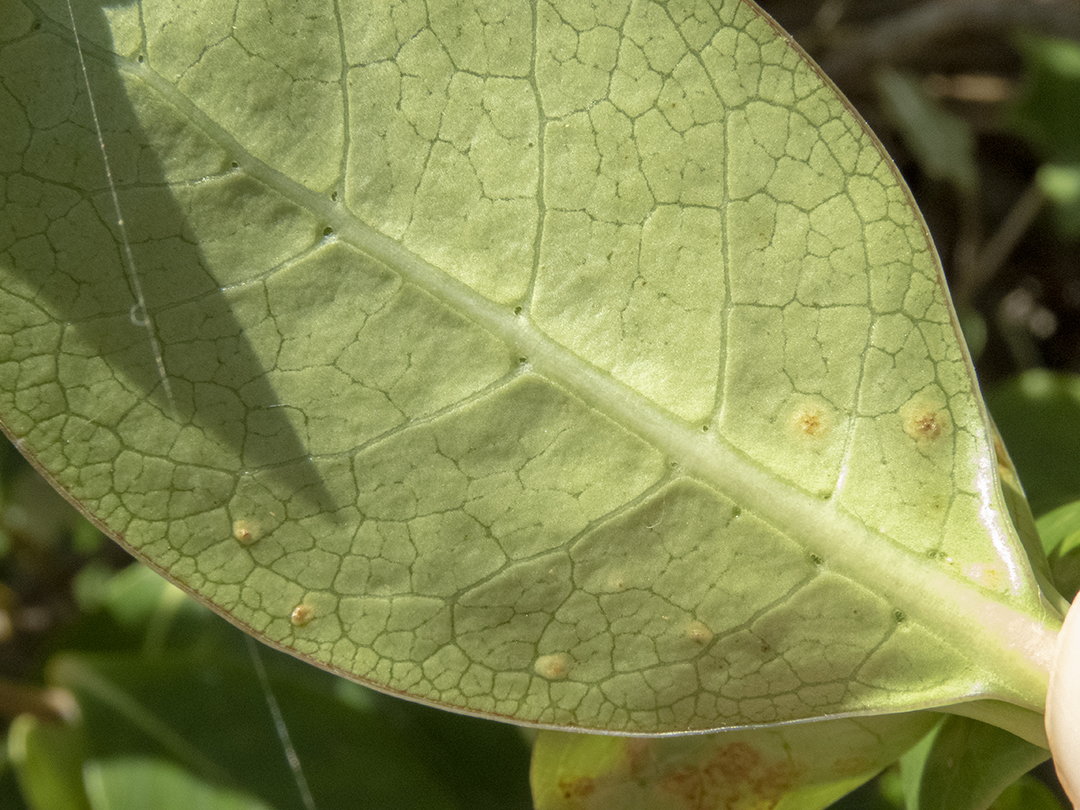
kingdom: Plantae
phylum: Tracheophyta
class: Magnoliopsida
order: Gentianales
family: Rubiaceae
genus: Coprosma
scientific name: Coprosma repens
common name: Tree bedstraw
